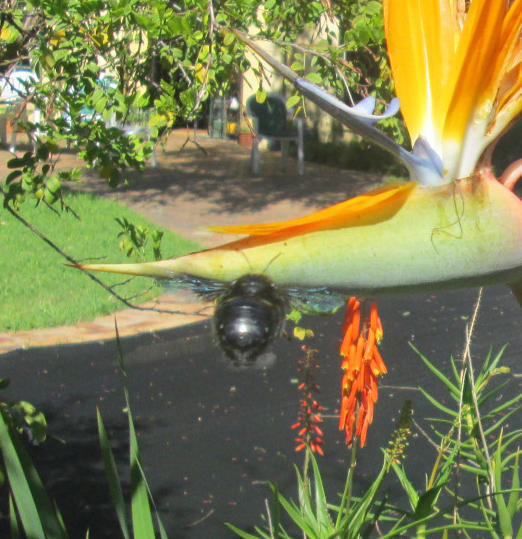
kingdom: Animalia
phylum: Arthropoda
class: Insecta
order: Hymenoptera
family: Apidae
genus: Xylocopa
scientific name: Xylocopa capitata
